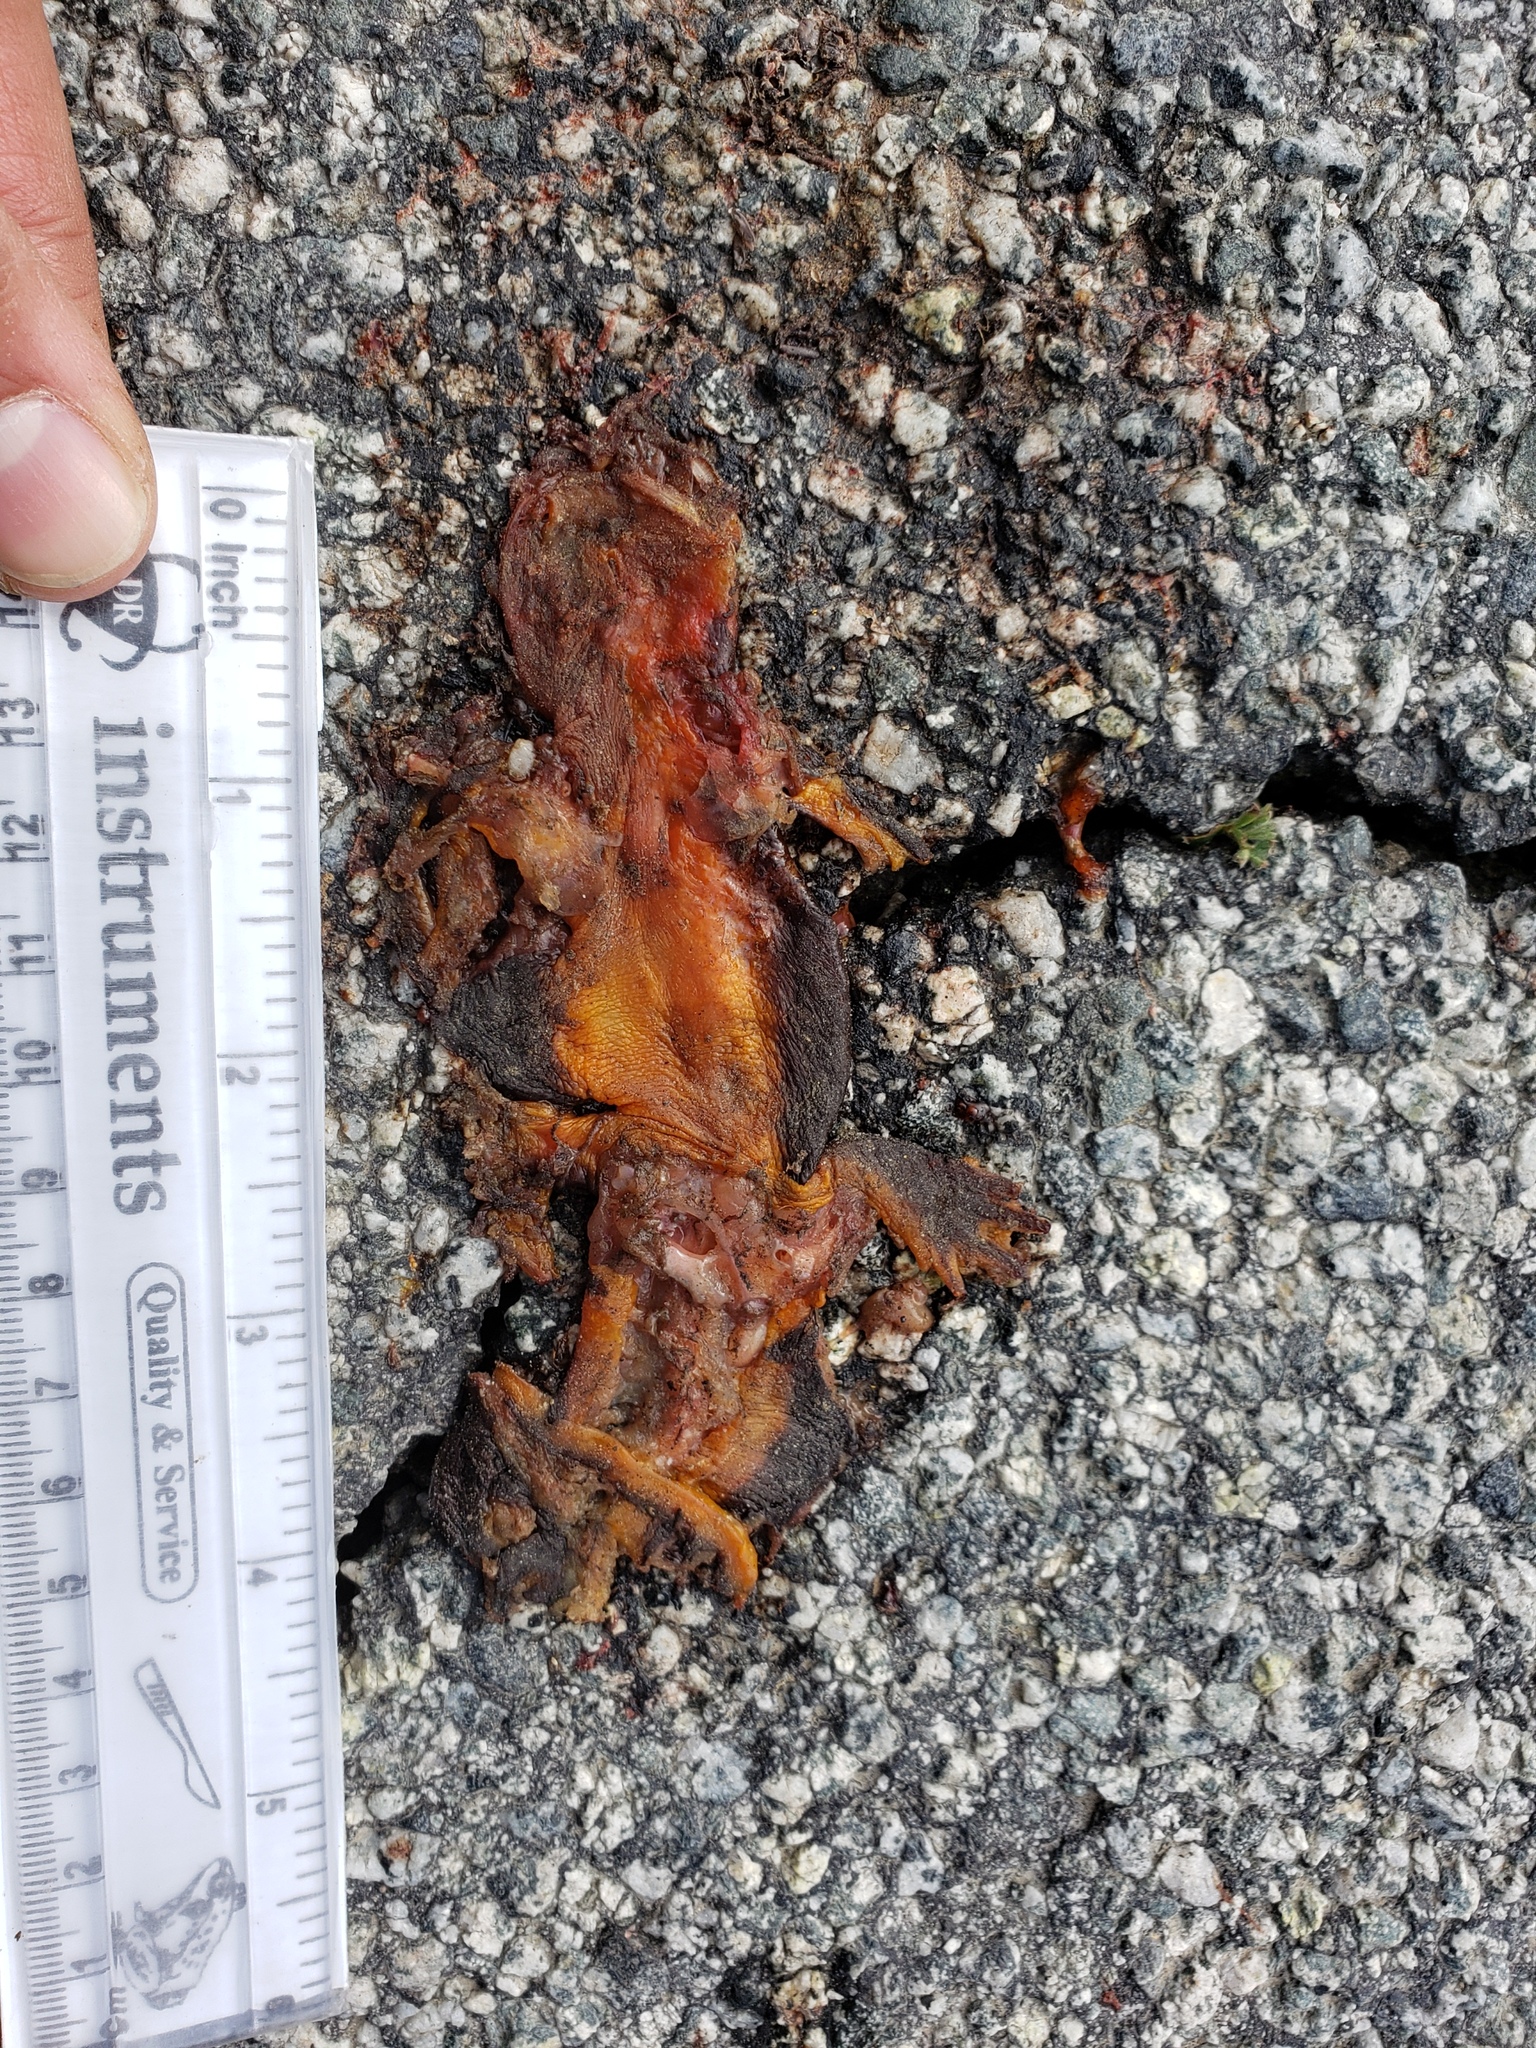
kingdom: Animalia
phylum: Chordata
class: Amphibia
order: Caudata
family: Salamandridae
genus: Taricha
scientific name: Taricha
